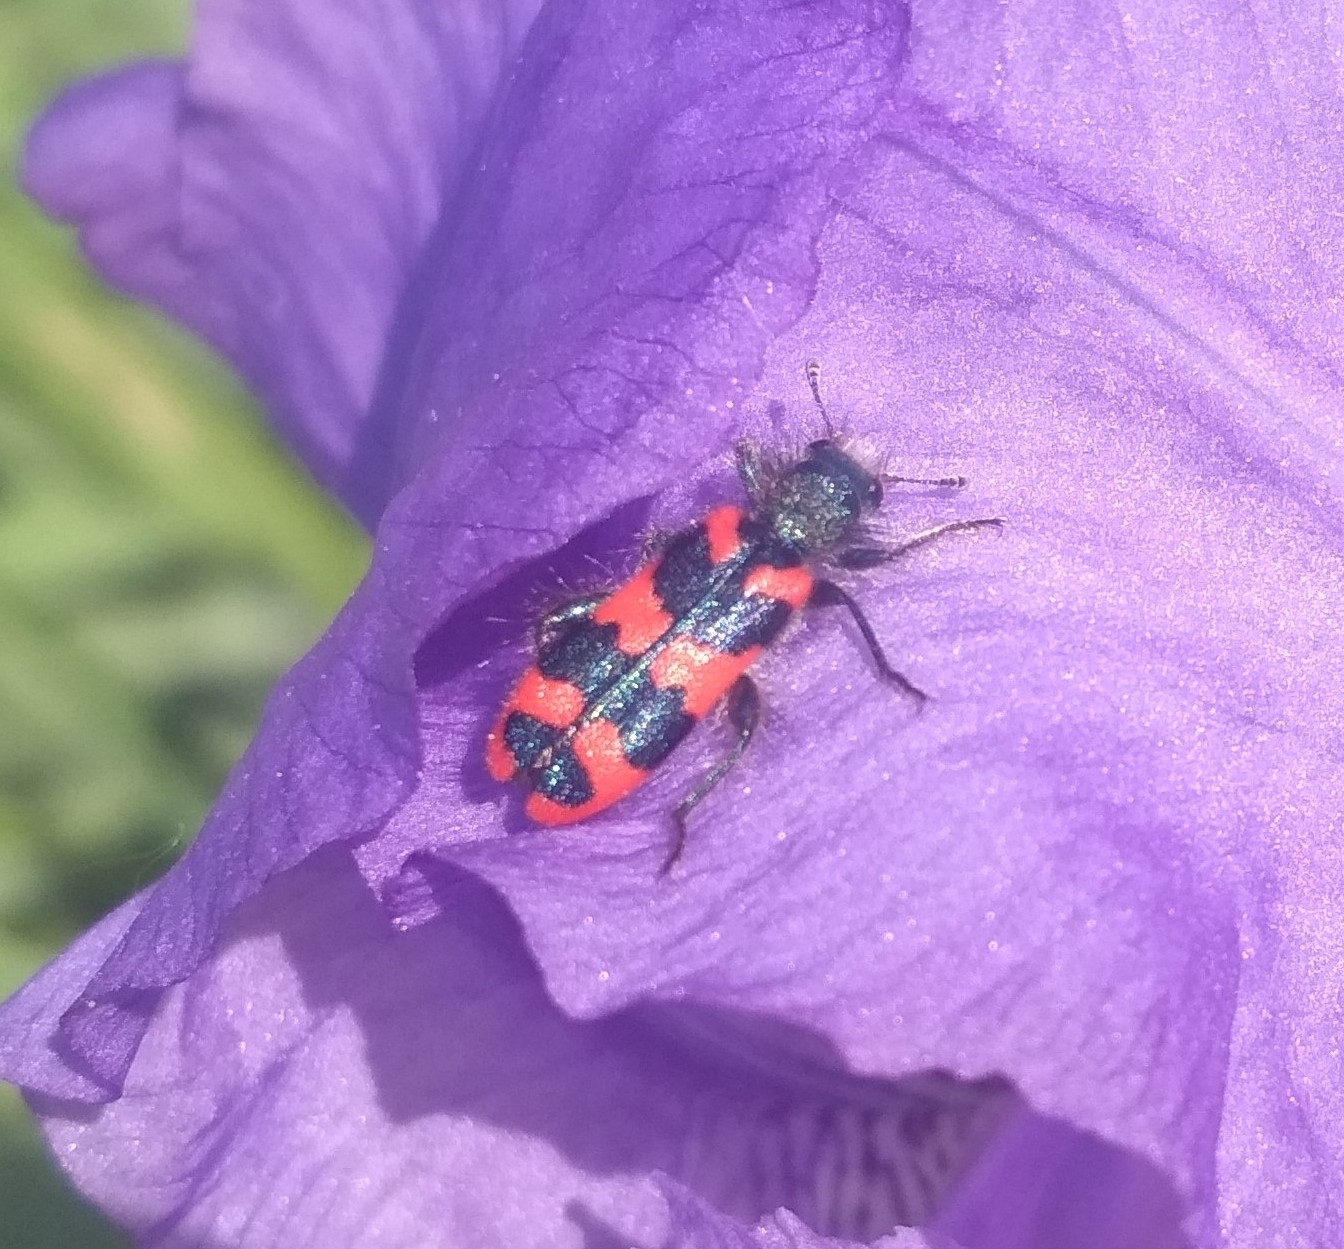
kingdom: Animalia
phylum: Arthropoda
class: Insecta
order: Coleoptera
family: Cleridae
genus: Trichodes
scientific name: Trichodes alvearius
